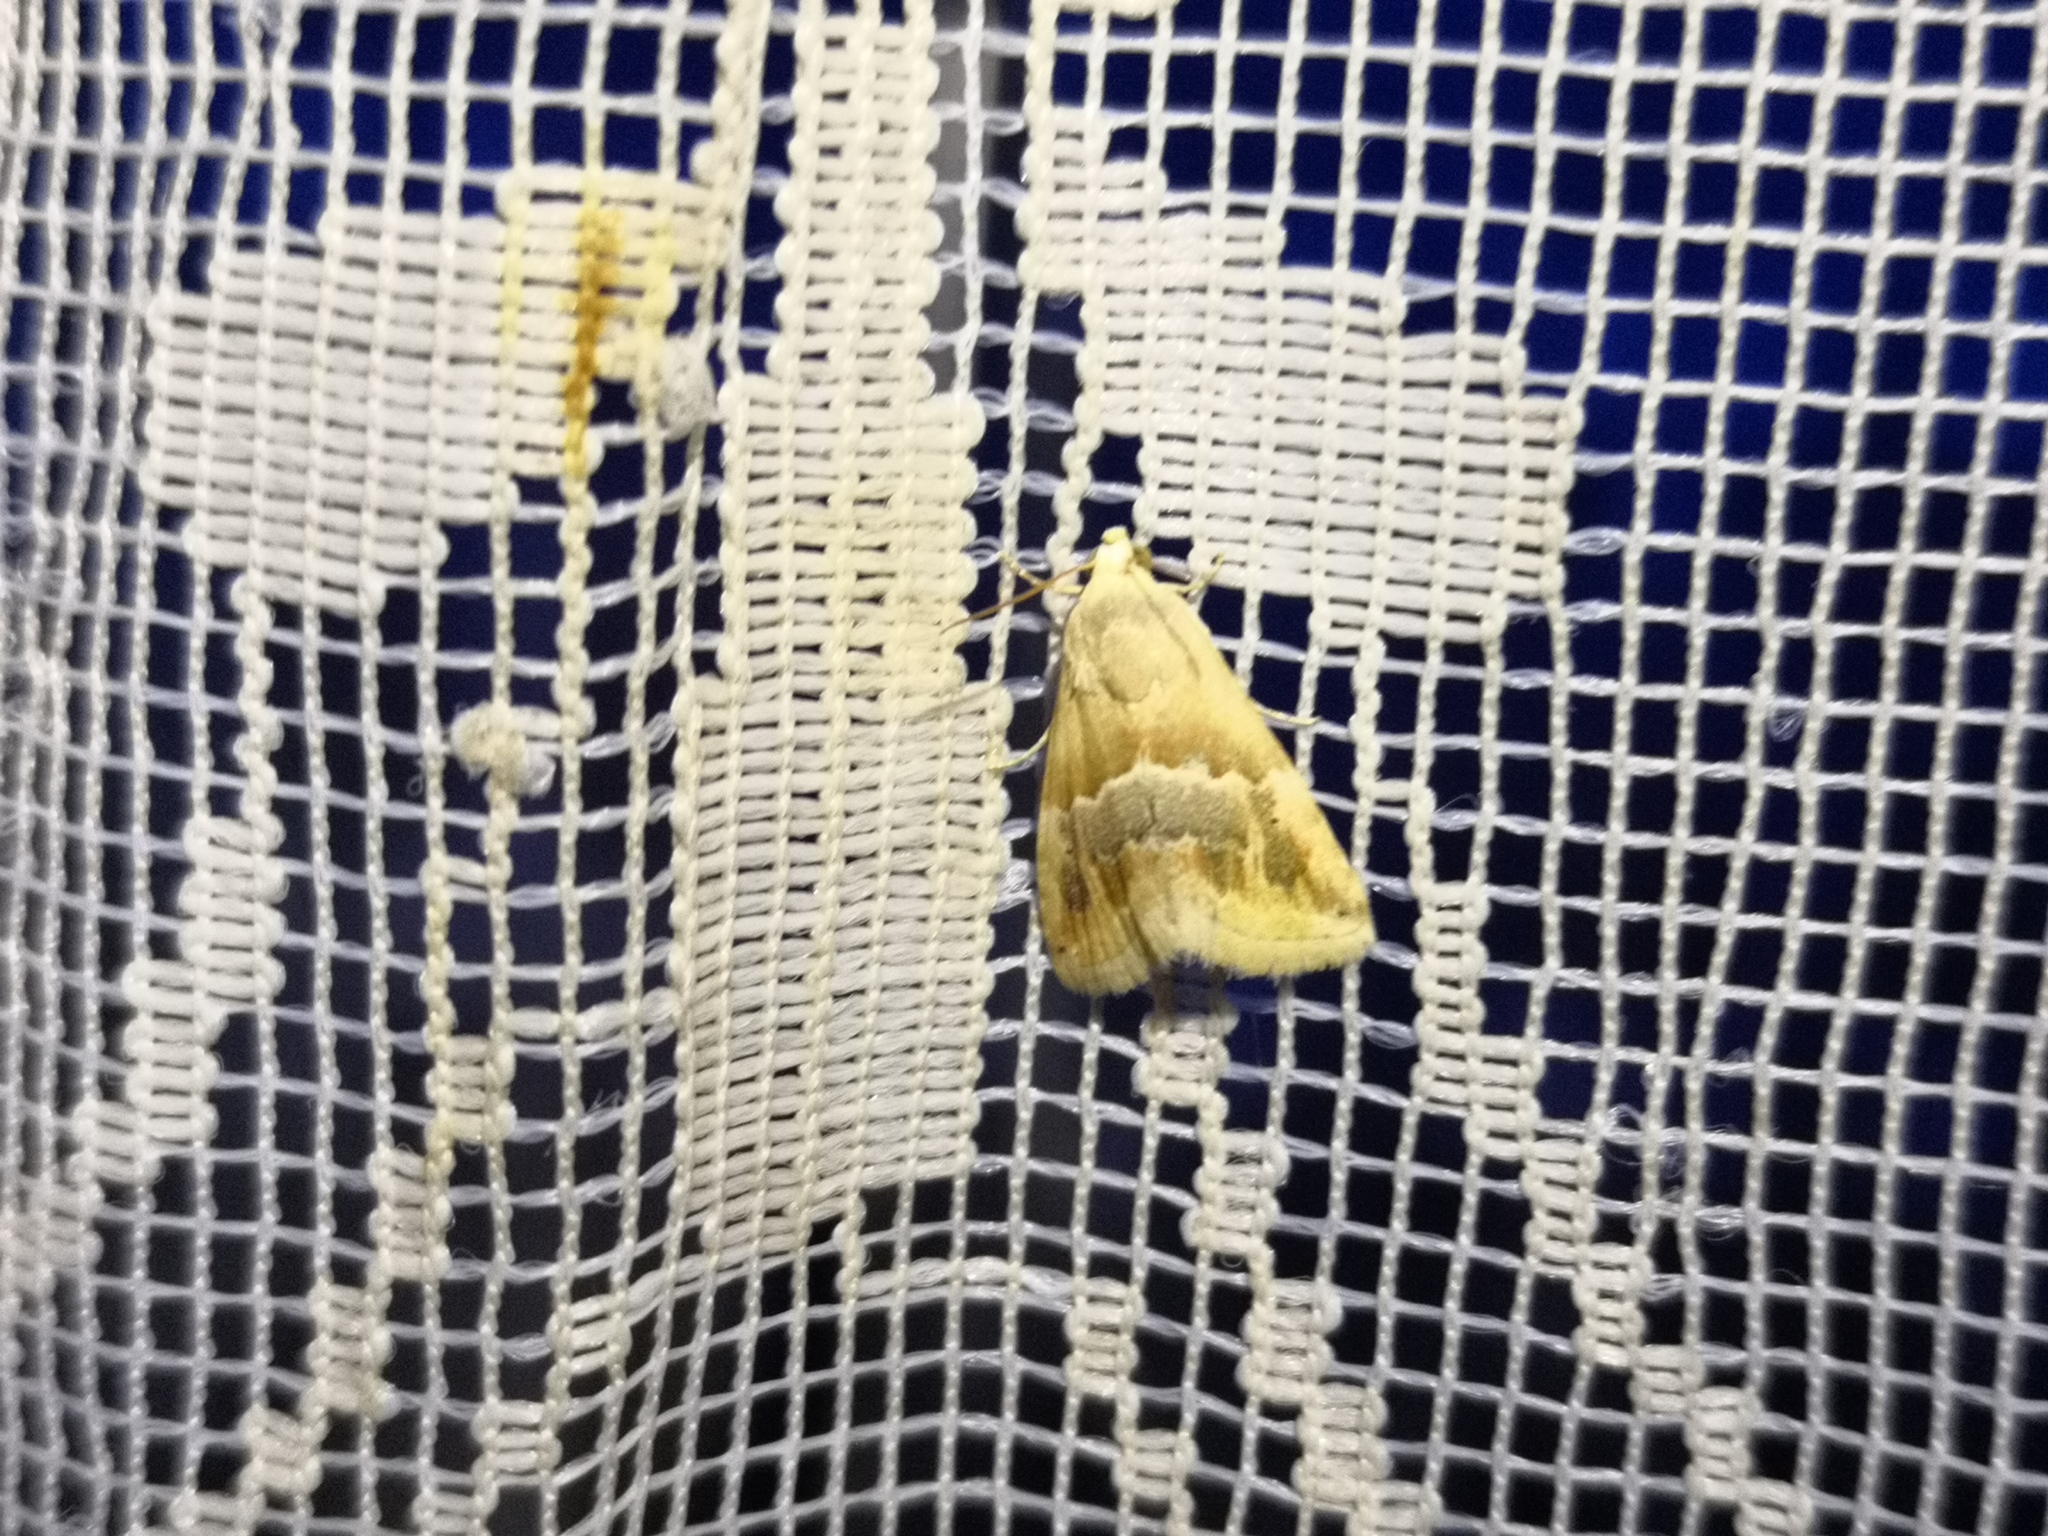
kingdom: Animalia
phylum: Arthropoda
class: Insecta
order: Lepidoptera
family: Noctuidae
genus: Eublemma
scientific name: Eublemma parva
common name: Small marbled
